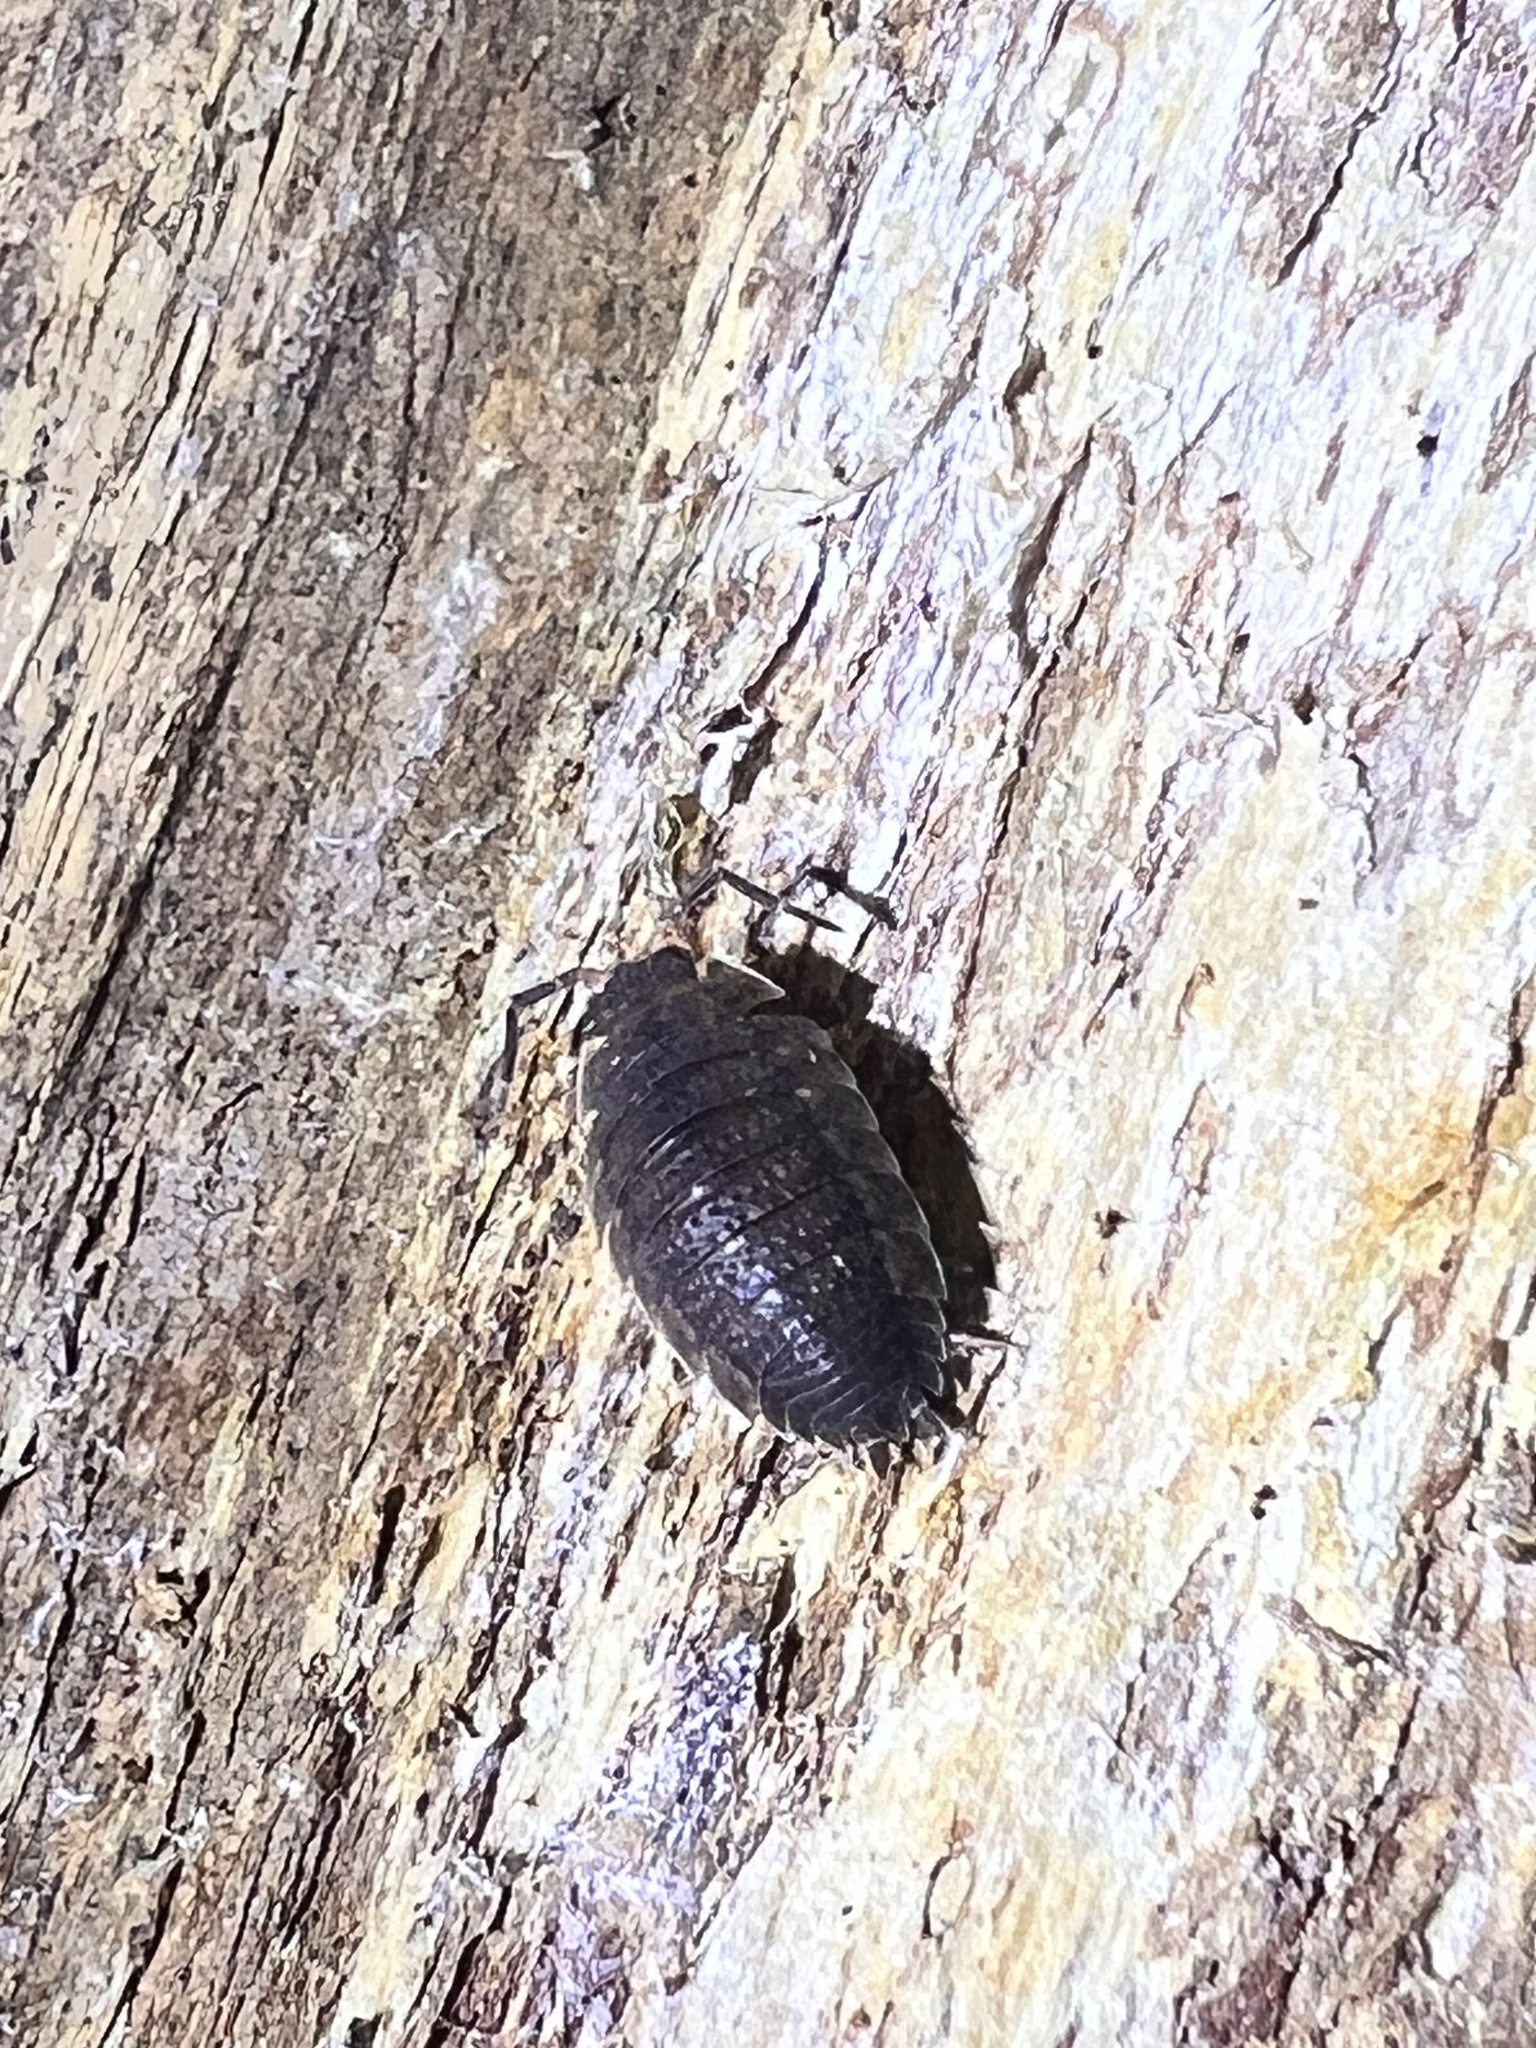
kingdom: Animalia
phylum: Arthropoda
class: Malacostraca
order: Isopoda
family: Porcellionidae
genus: Porcellio
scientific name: Porcellio scaber
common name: Common rough woodlouse
